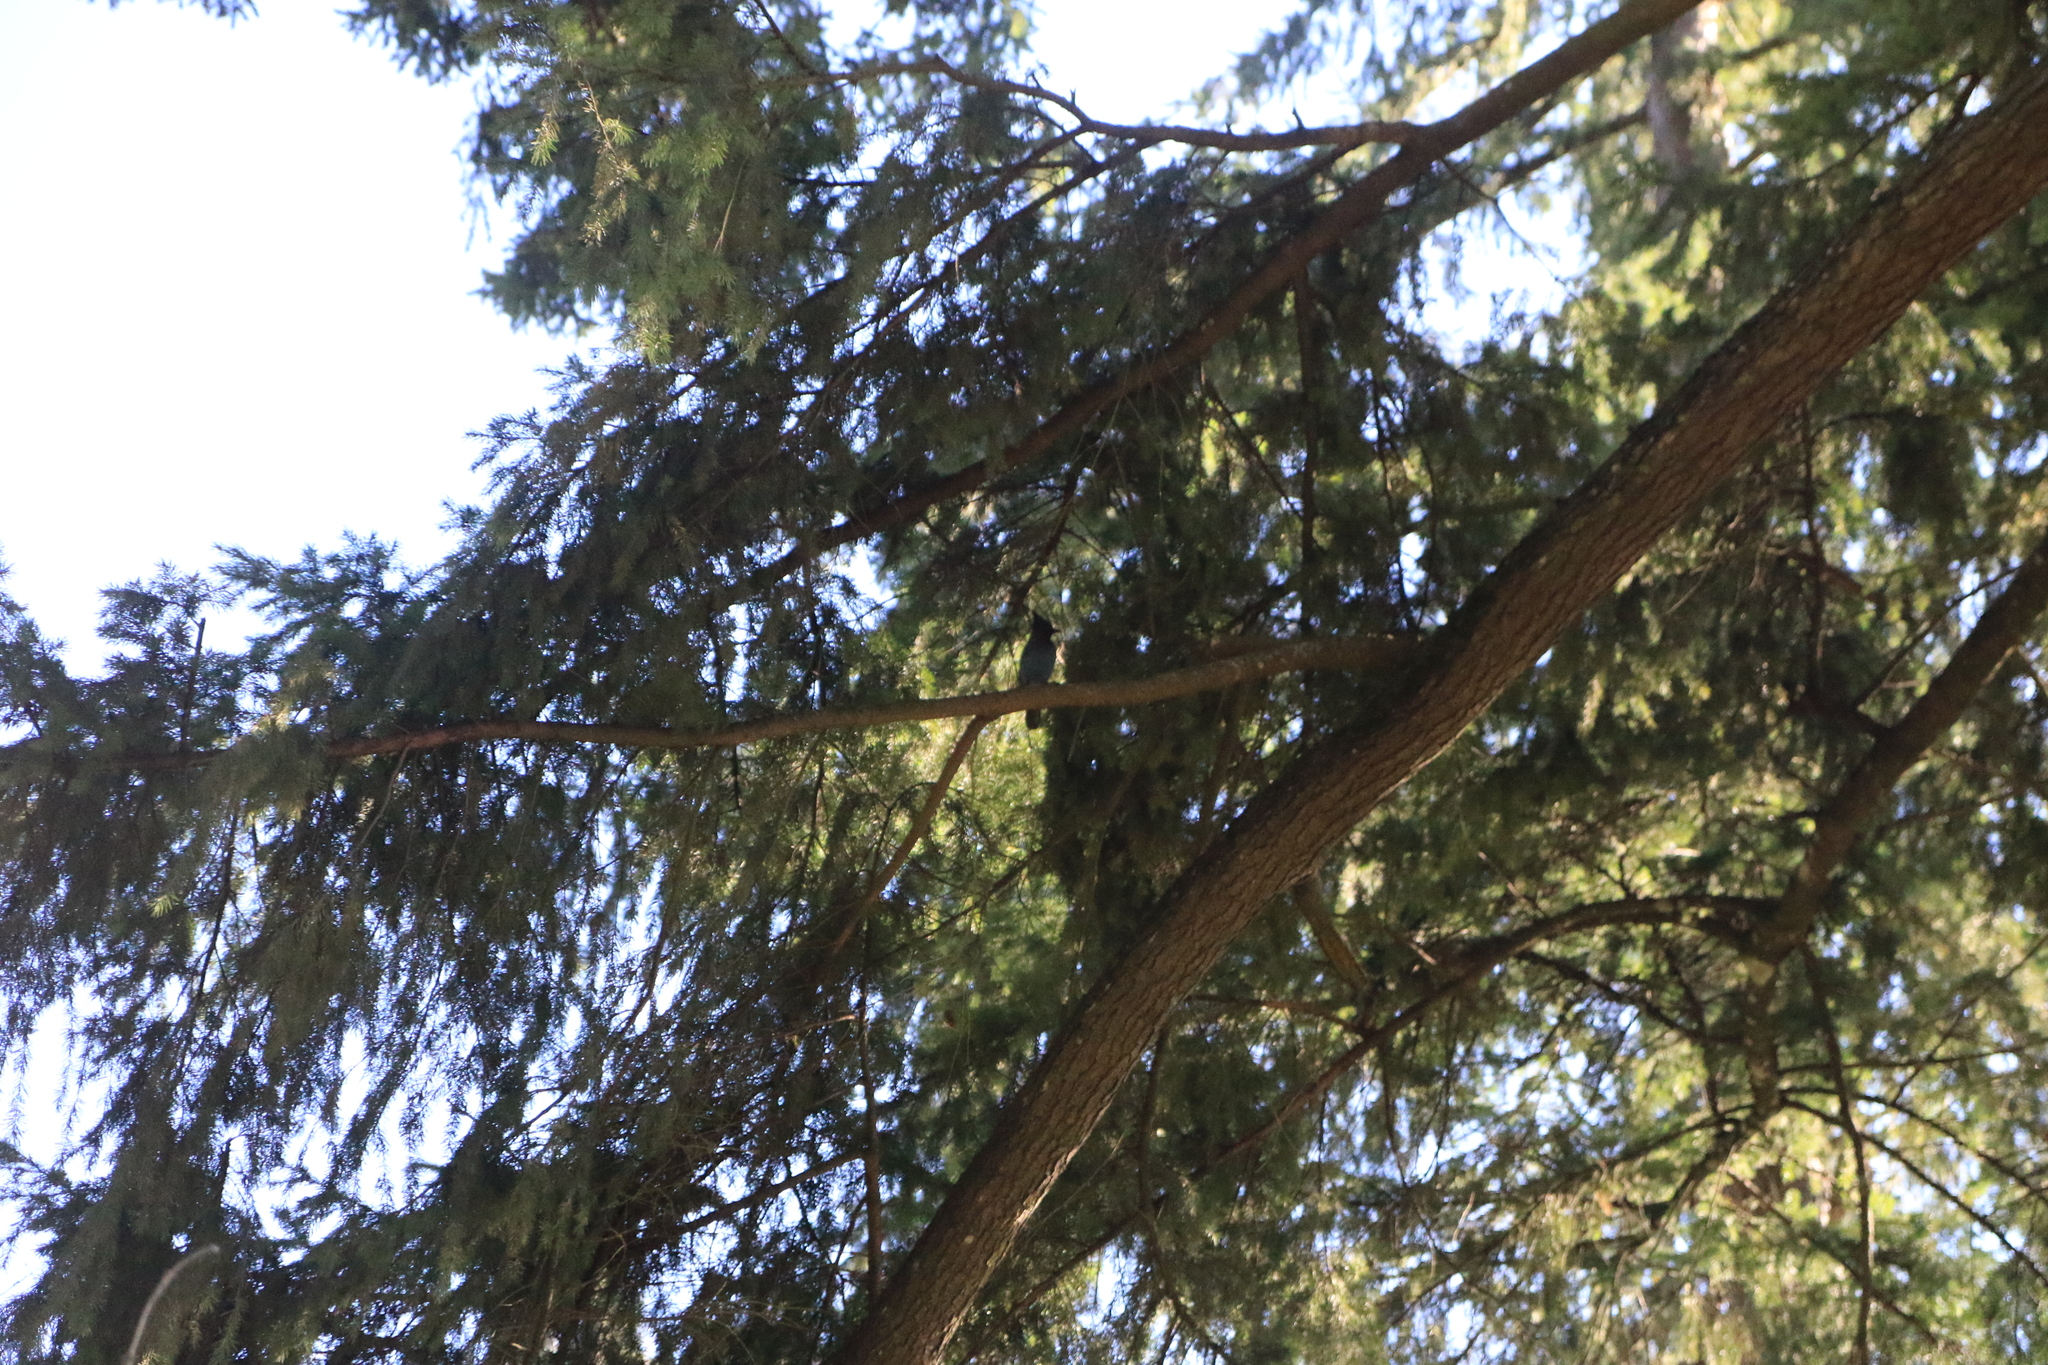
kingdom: Animalia
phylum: Chordata
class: Aves
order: Passeriformes
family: Corvidae
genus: Cyanocitta
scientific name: Cyanocitta stelleri
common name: Steller's jay
